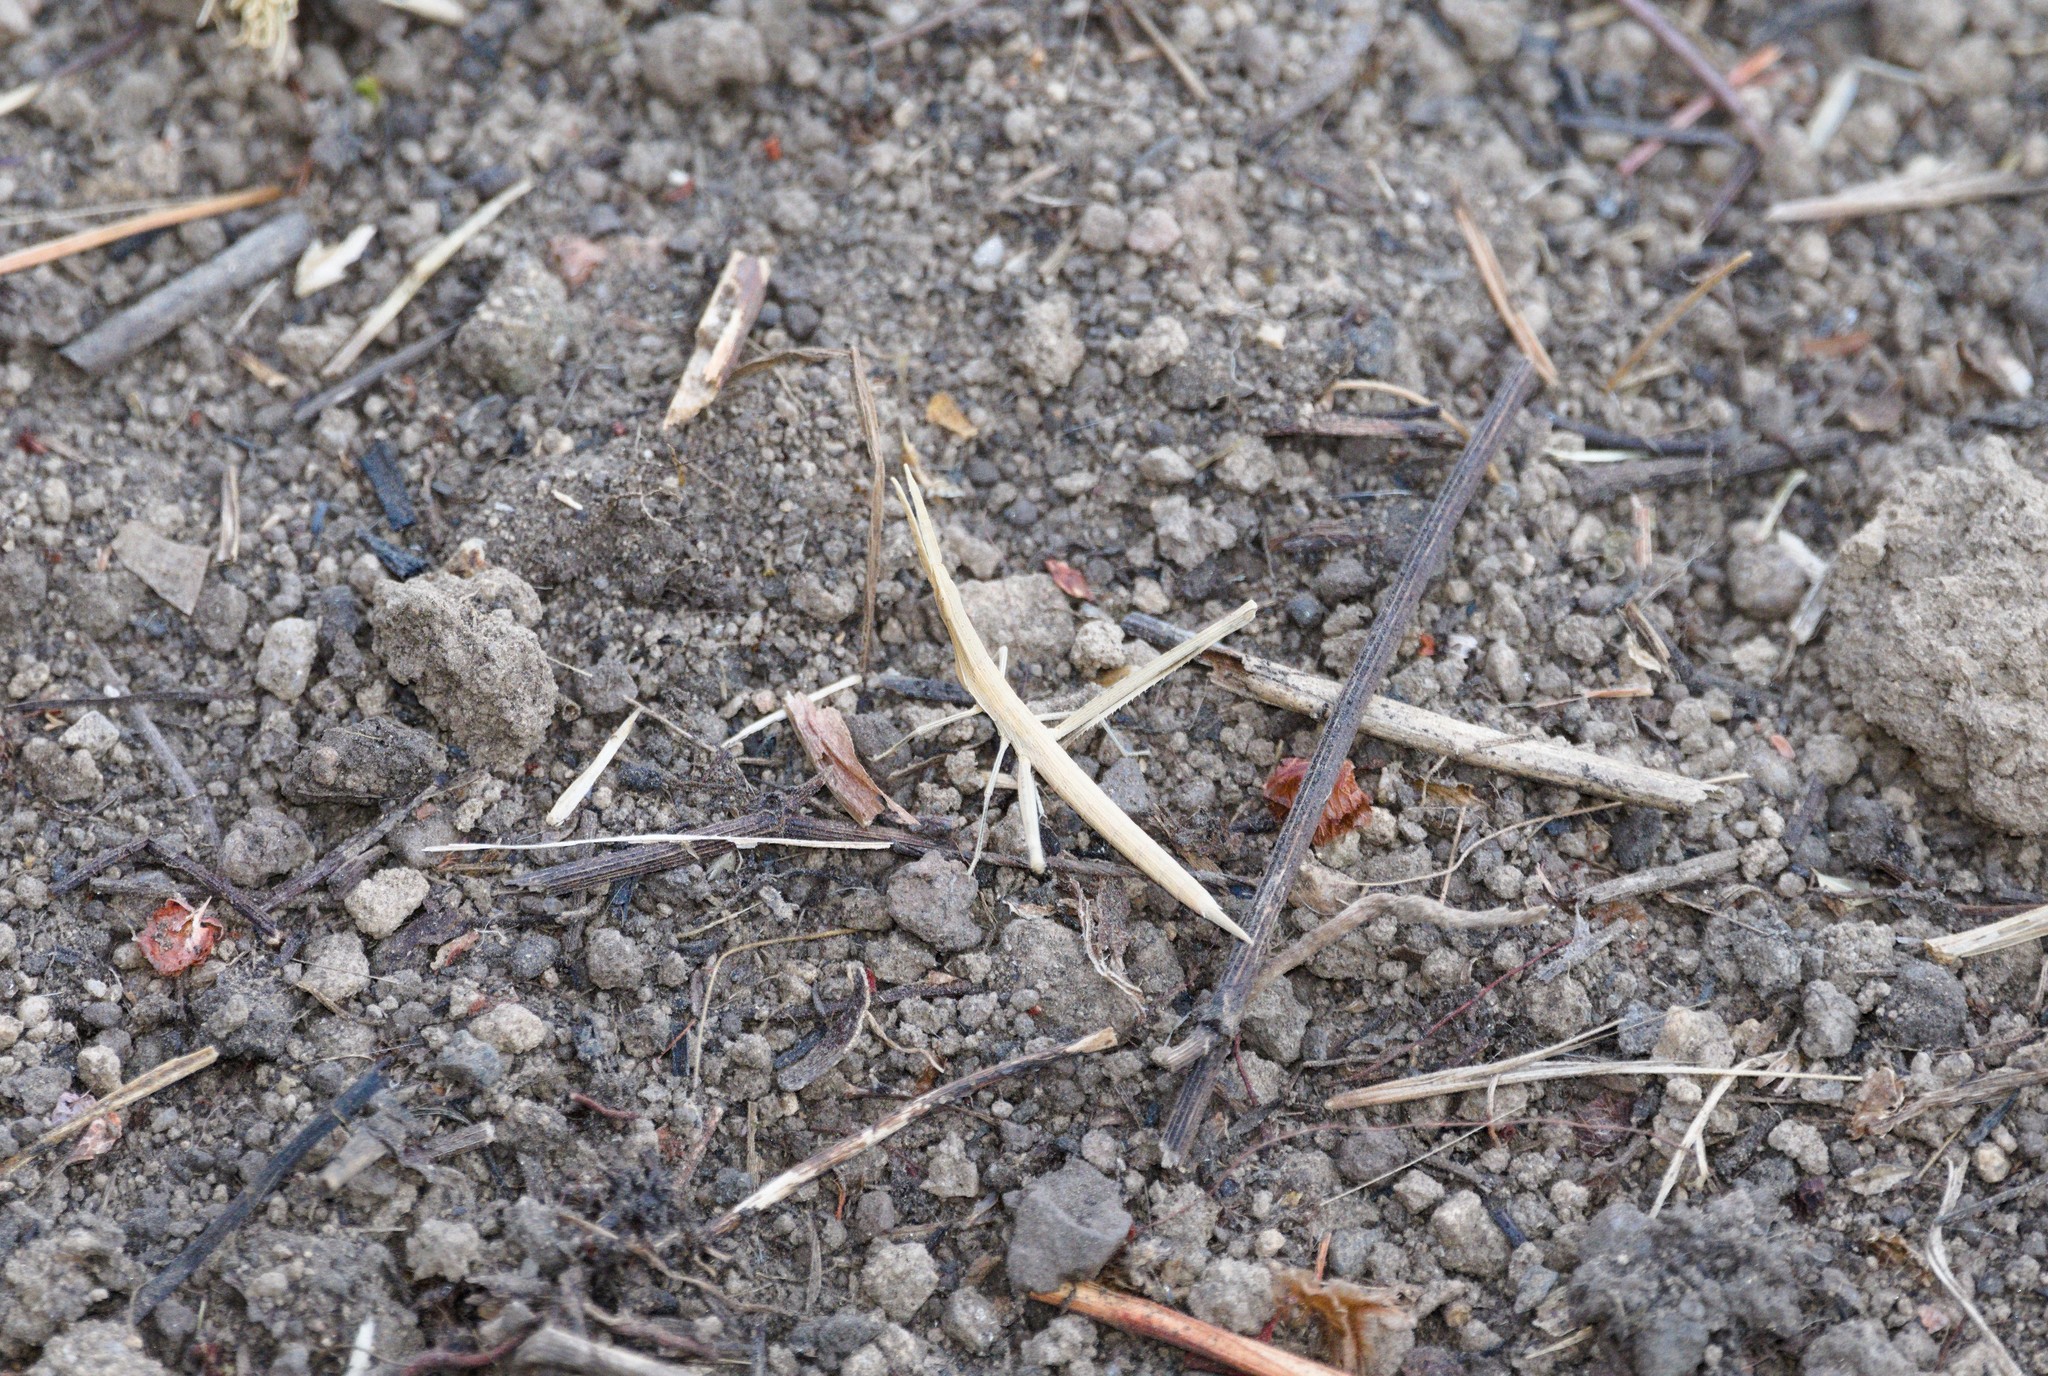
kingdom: Animalia
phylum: Arthropoda
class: Insecta
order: Orthoptera
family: Acrididae
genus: Truxalis
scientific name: Truxalis nasuta
